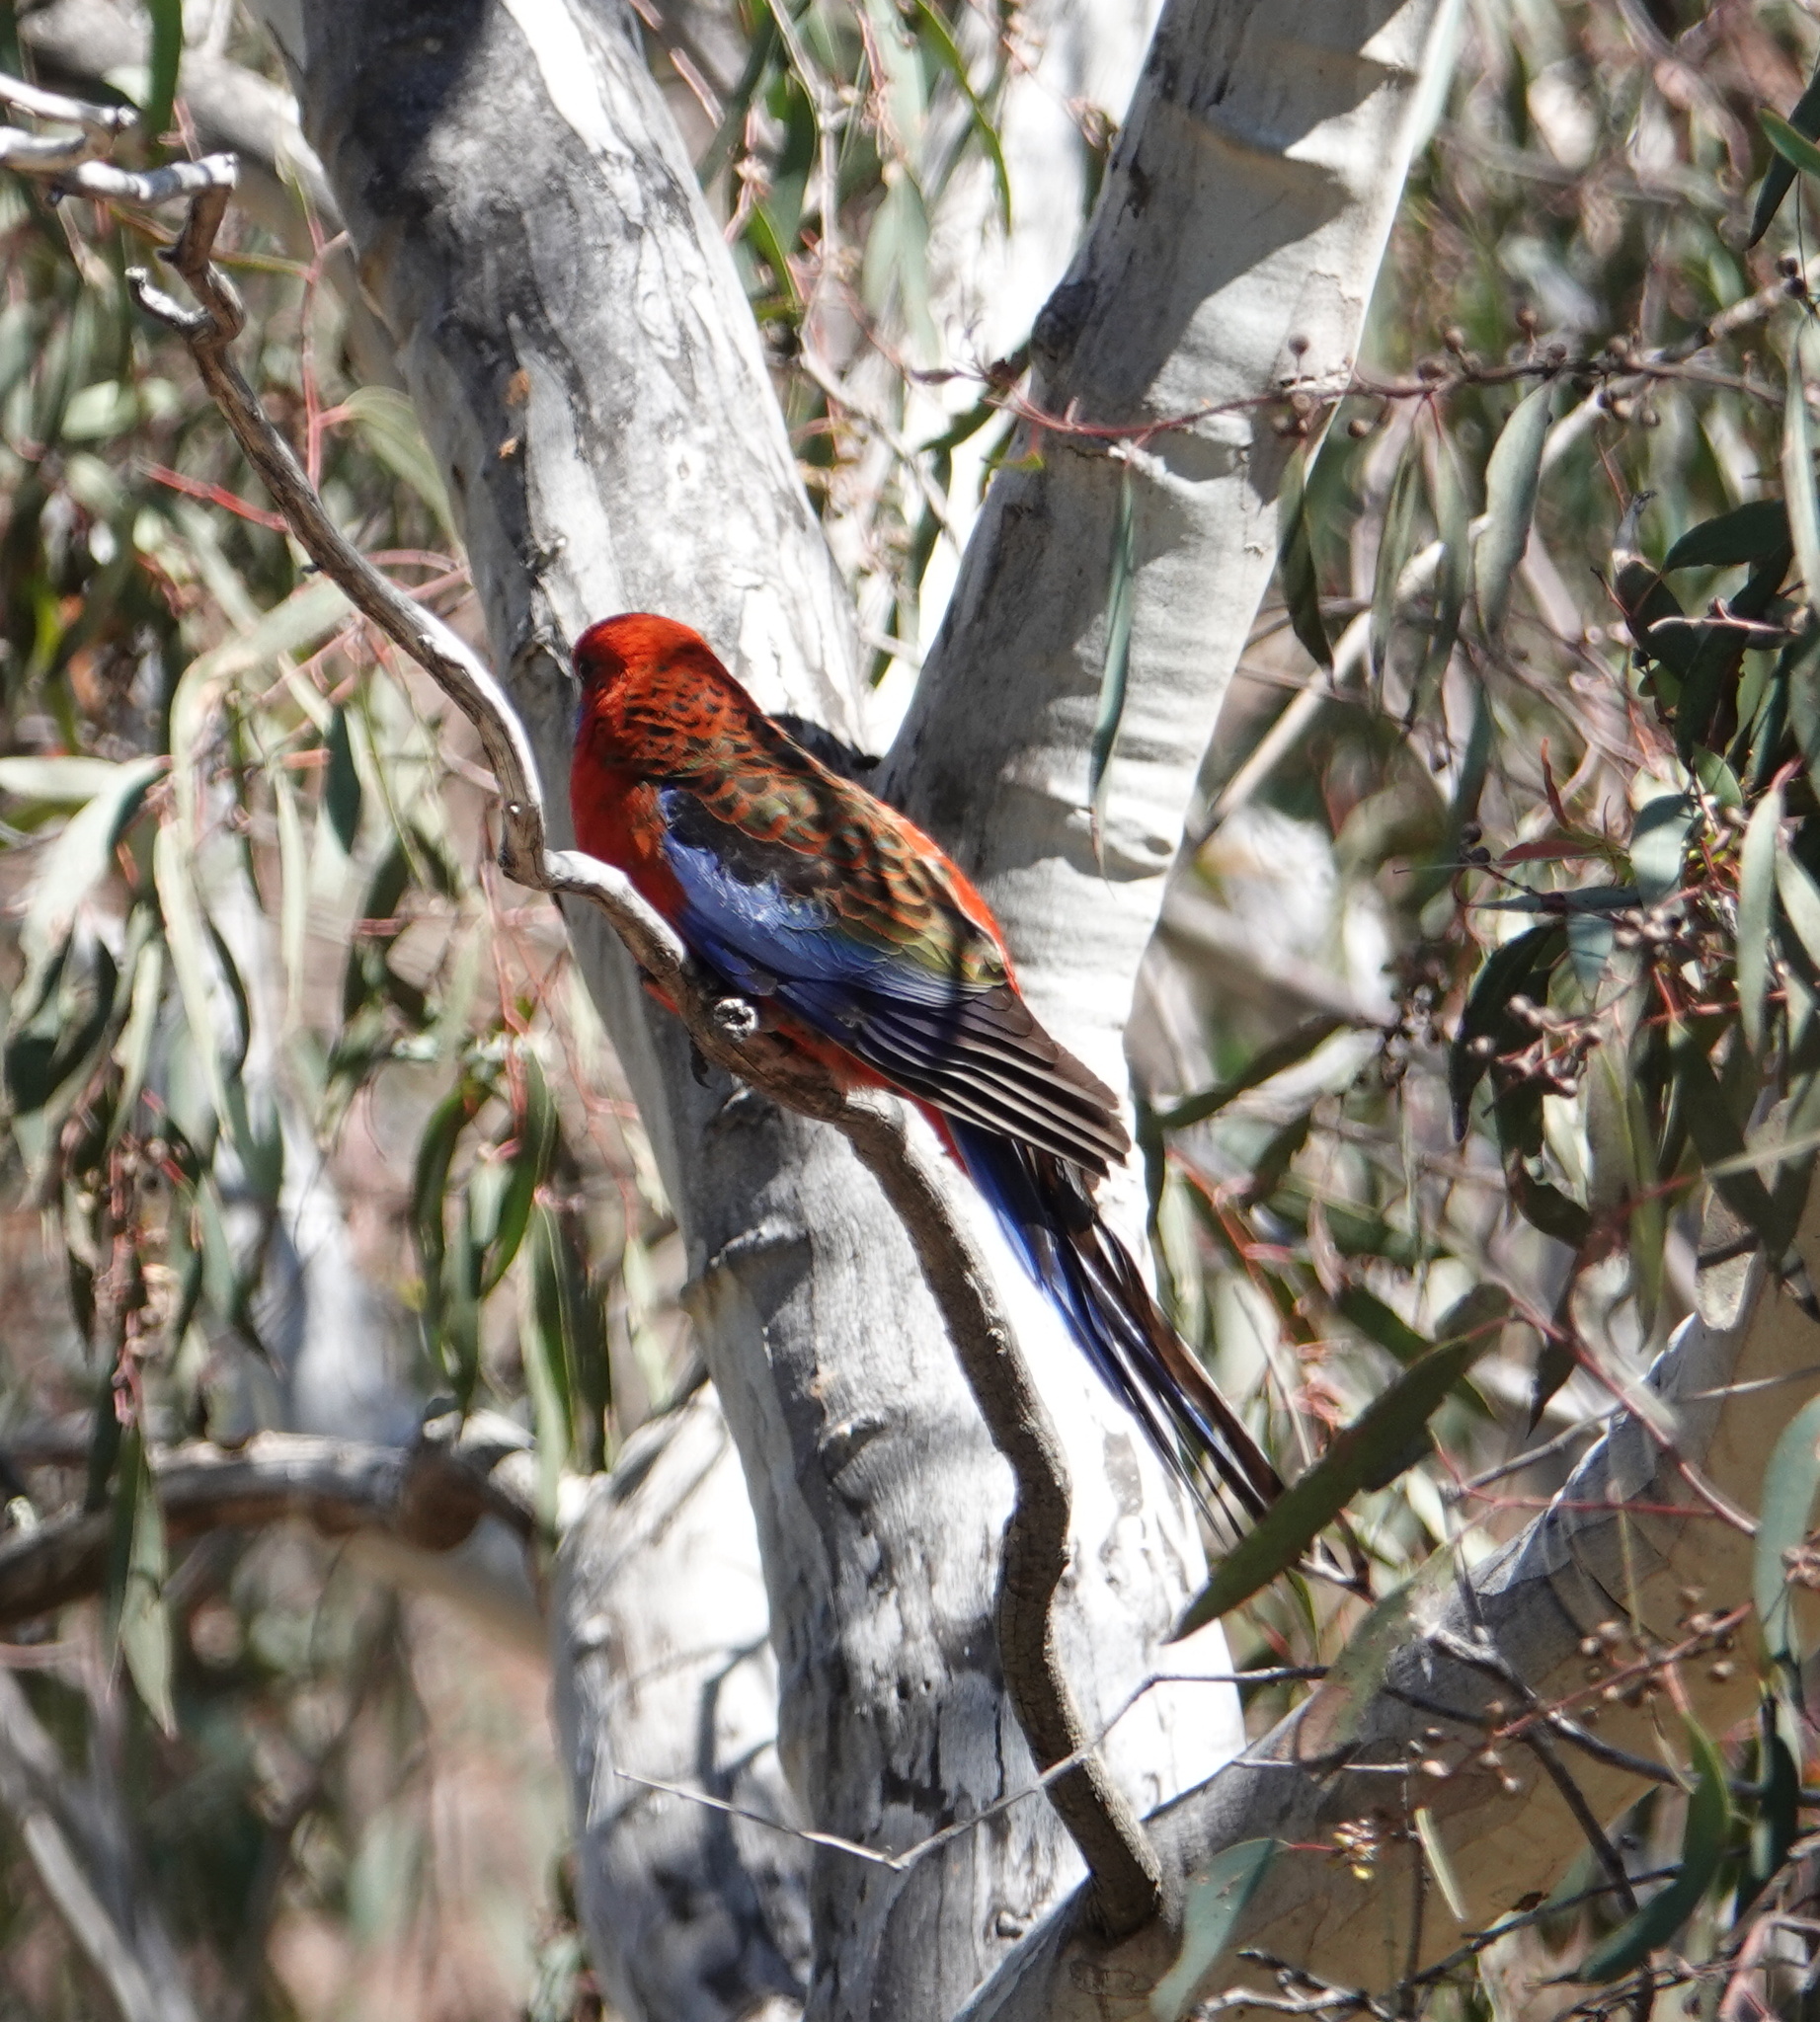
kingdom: Animalia
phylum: Chordata
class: Aves
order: Psittaciformes
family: Psittacidae
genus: Platycercus
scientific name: Platycercus elegans
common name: Crimson rosella
